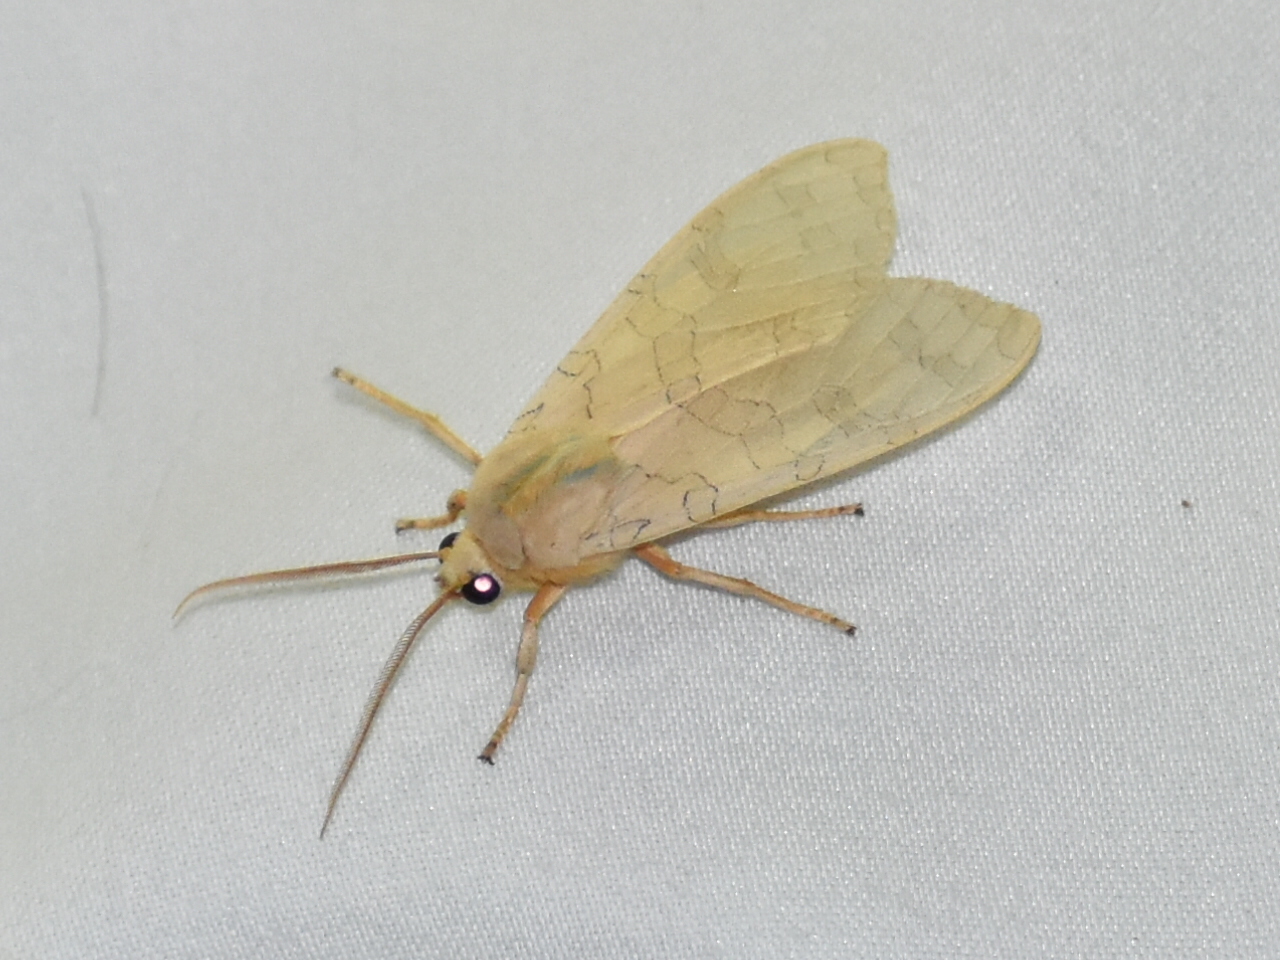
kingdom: Animalia
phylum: Arthropoda
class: Insecta
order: Lepidoptera
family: Erebidae
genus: Halysidota
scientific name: Halysidota
